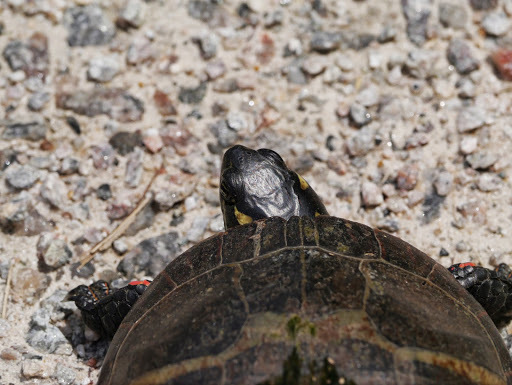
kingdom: Animalia
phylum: Chordata
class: Testudines
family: Emydidae
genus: Chrysemys
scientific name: Chrysemys picta
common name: Painted turtle
